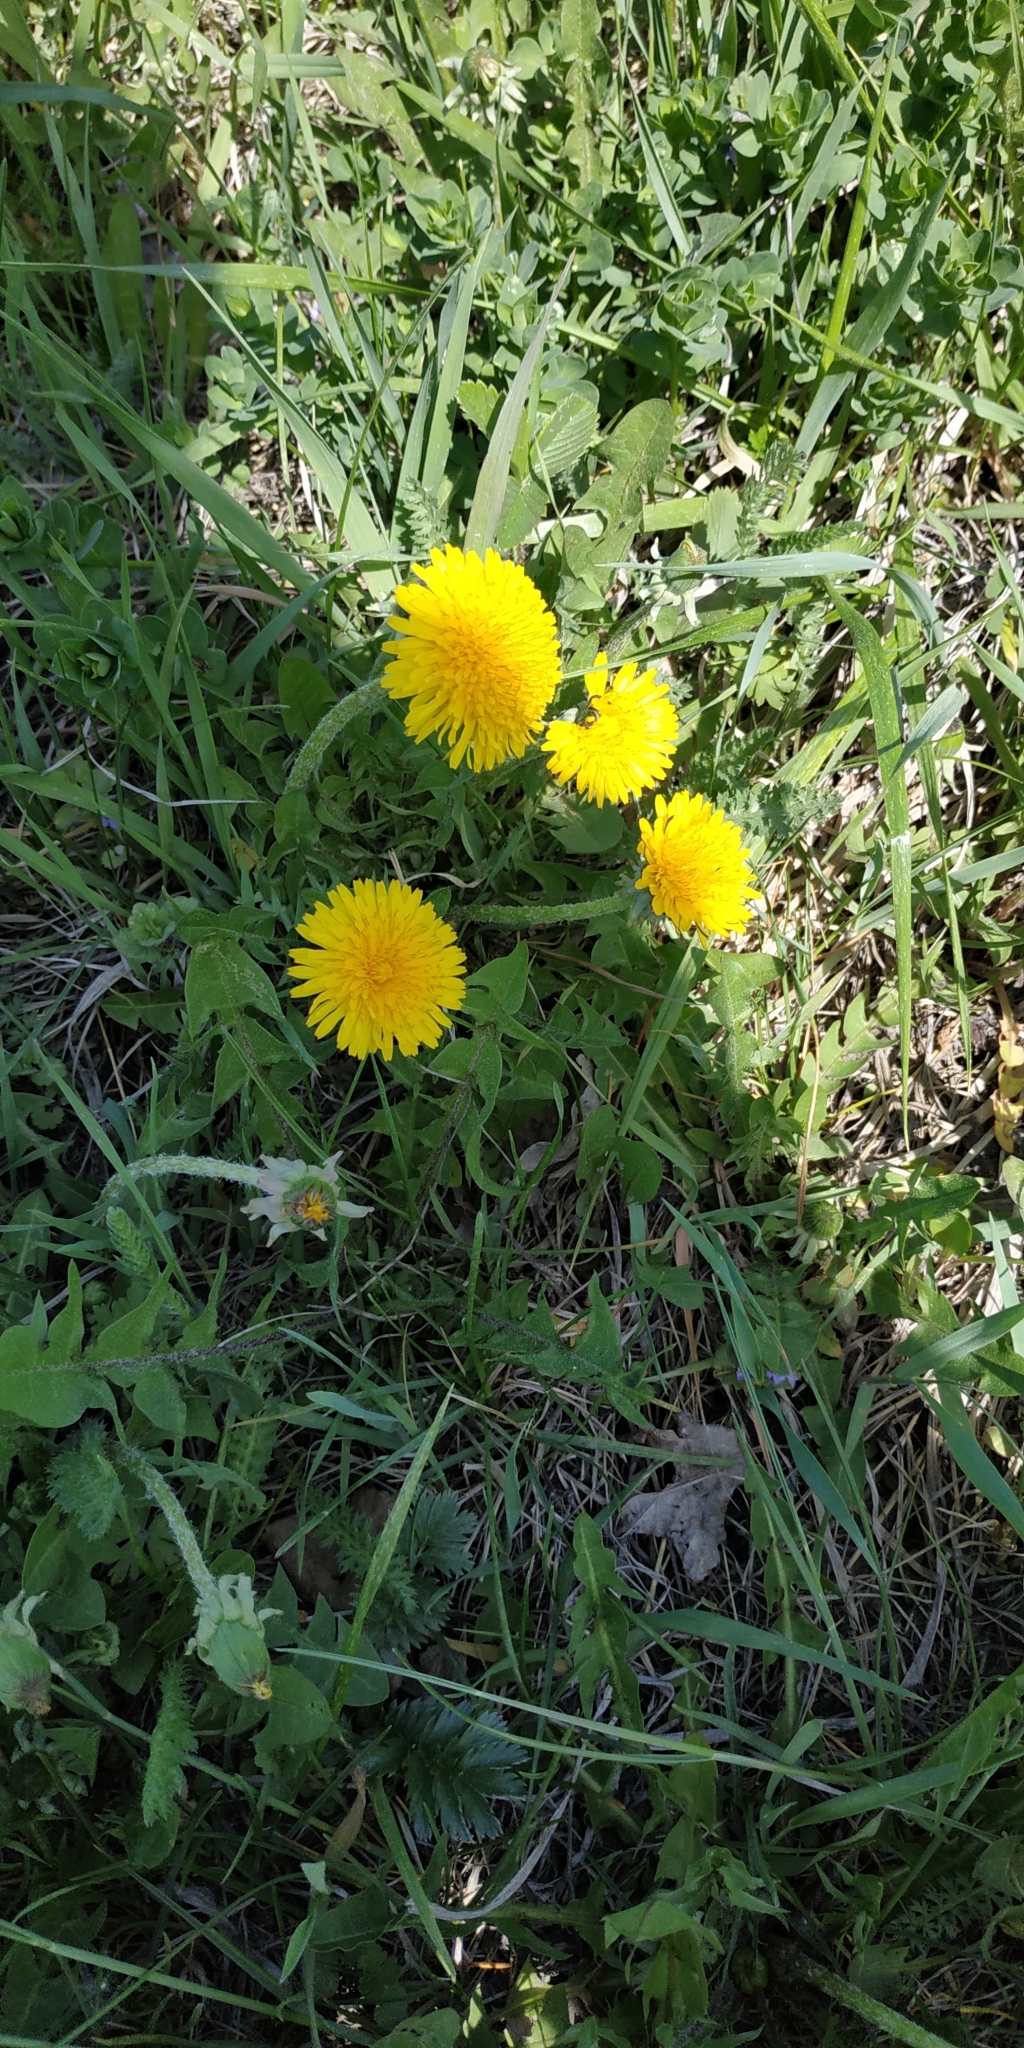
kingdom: Plantae
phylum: Tracheophyta
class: Magnoliopsida
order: Asterales
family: Asteraceae
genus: Taraxacum
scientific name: Taraxacum officinale
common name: Common dandelion
